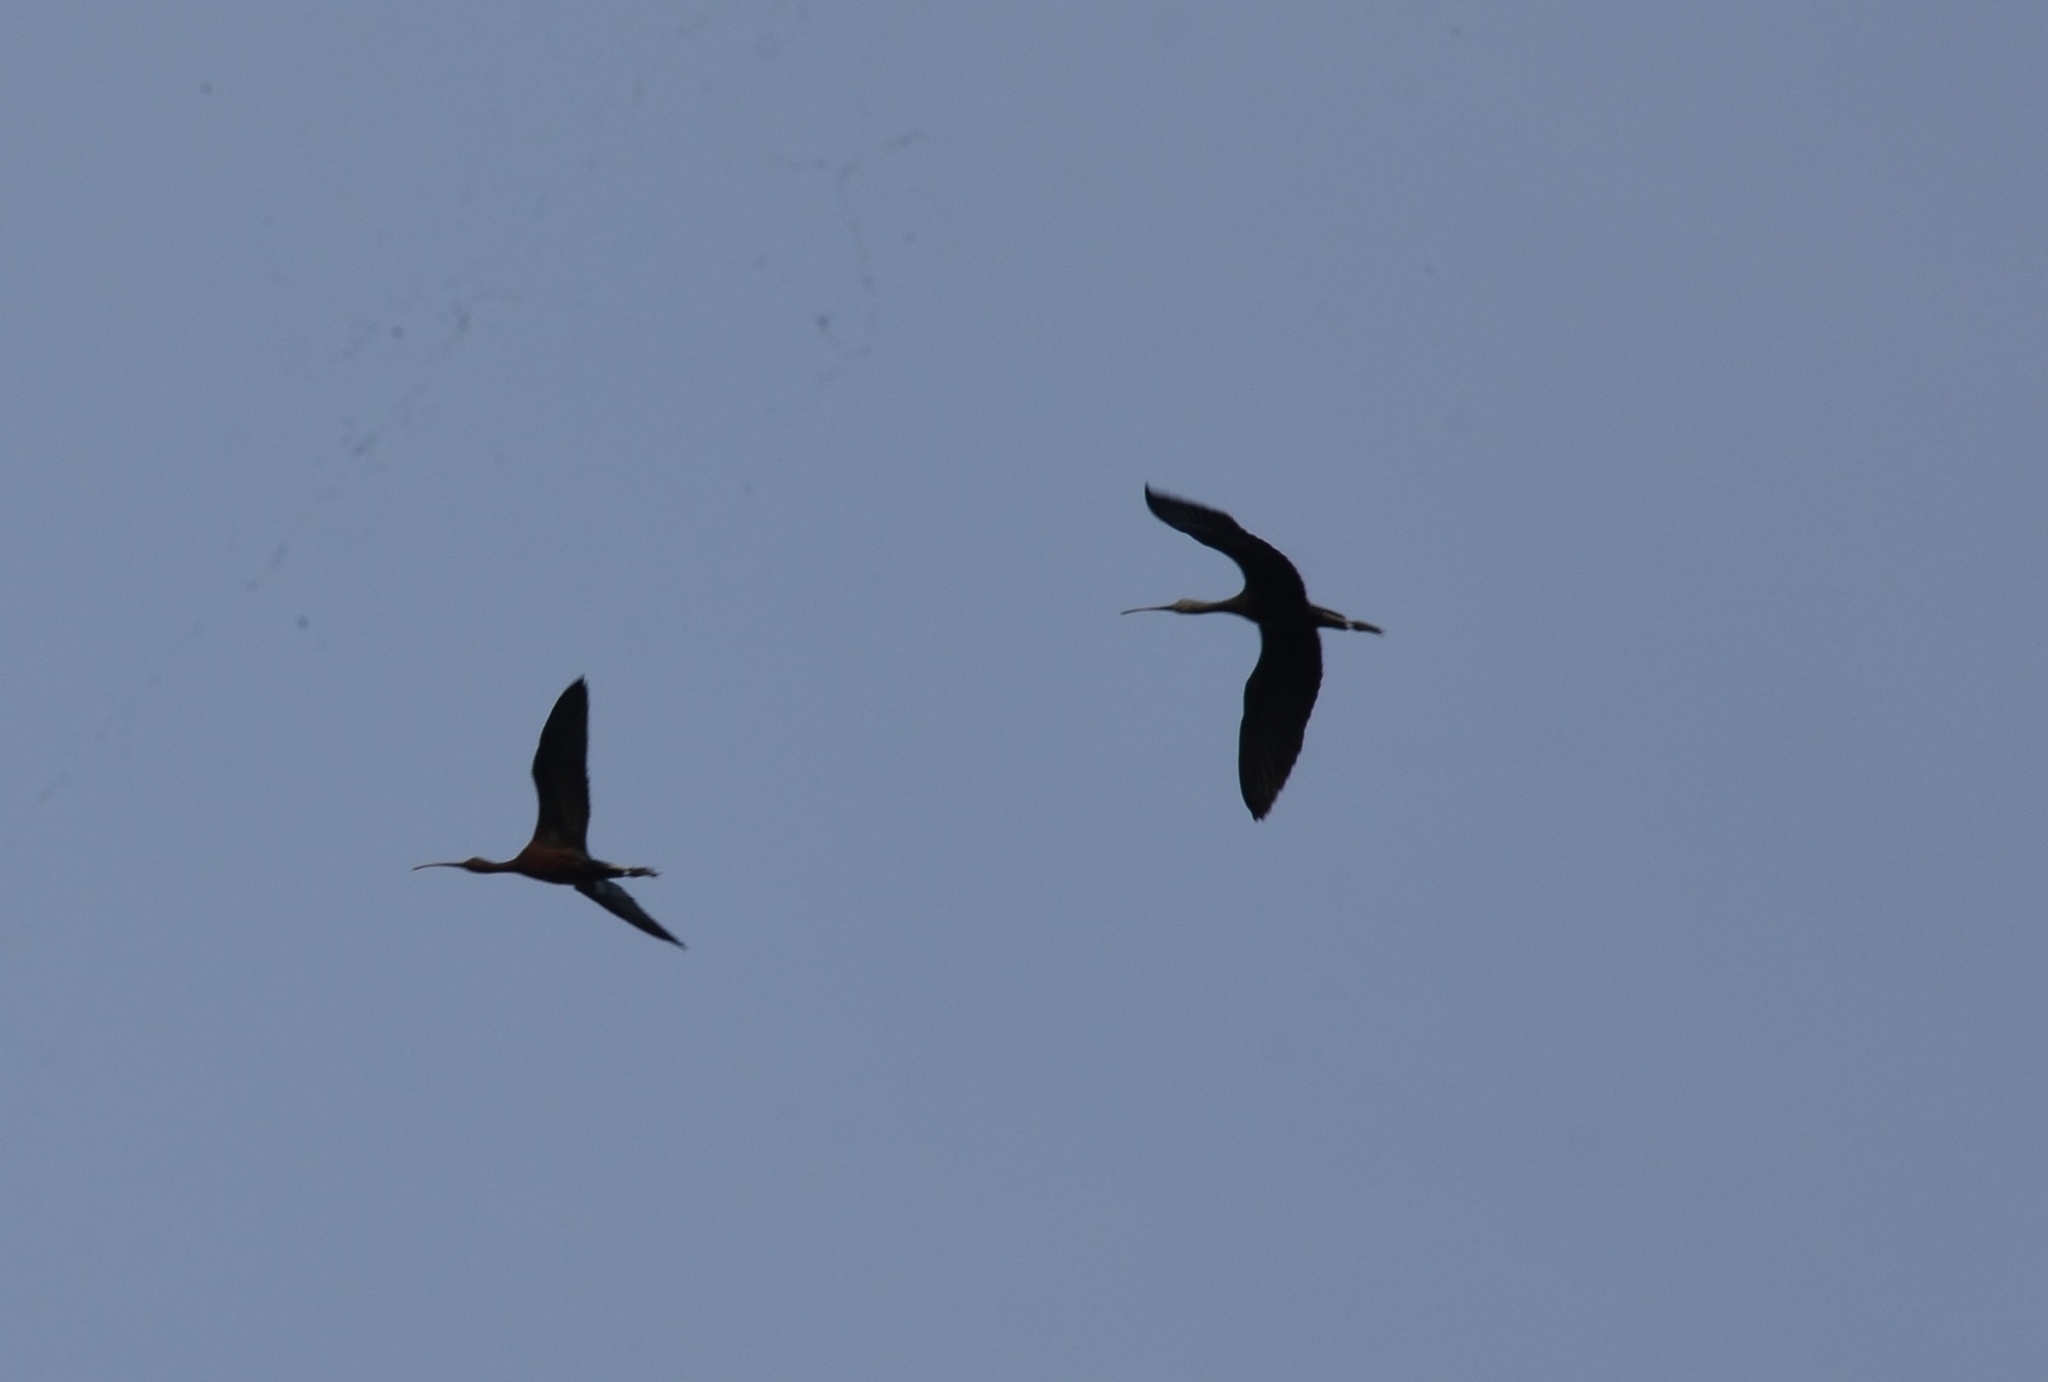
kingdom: Animalia
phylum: Chordata
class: Aves
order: Pelecaniformes
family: Threskiornithidae
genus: Plegadis
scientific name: Plegadis falcinellus
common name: Glossy ibis
